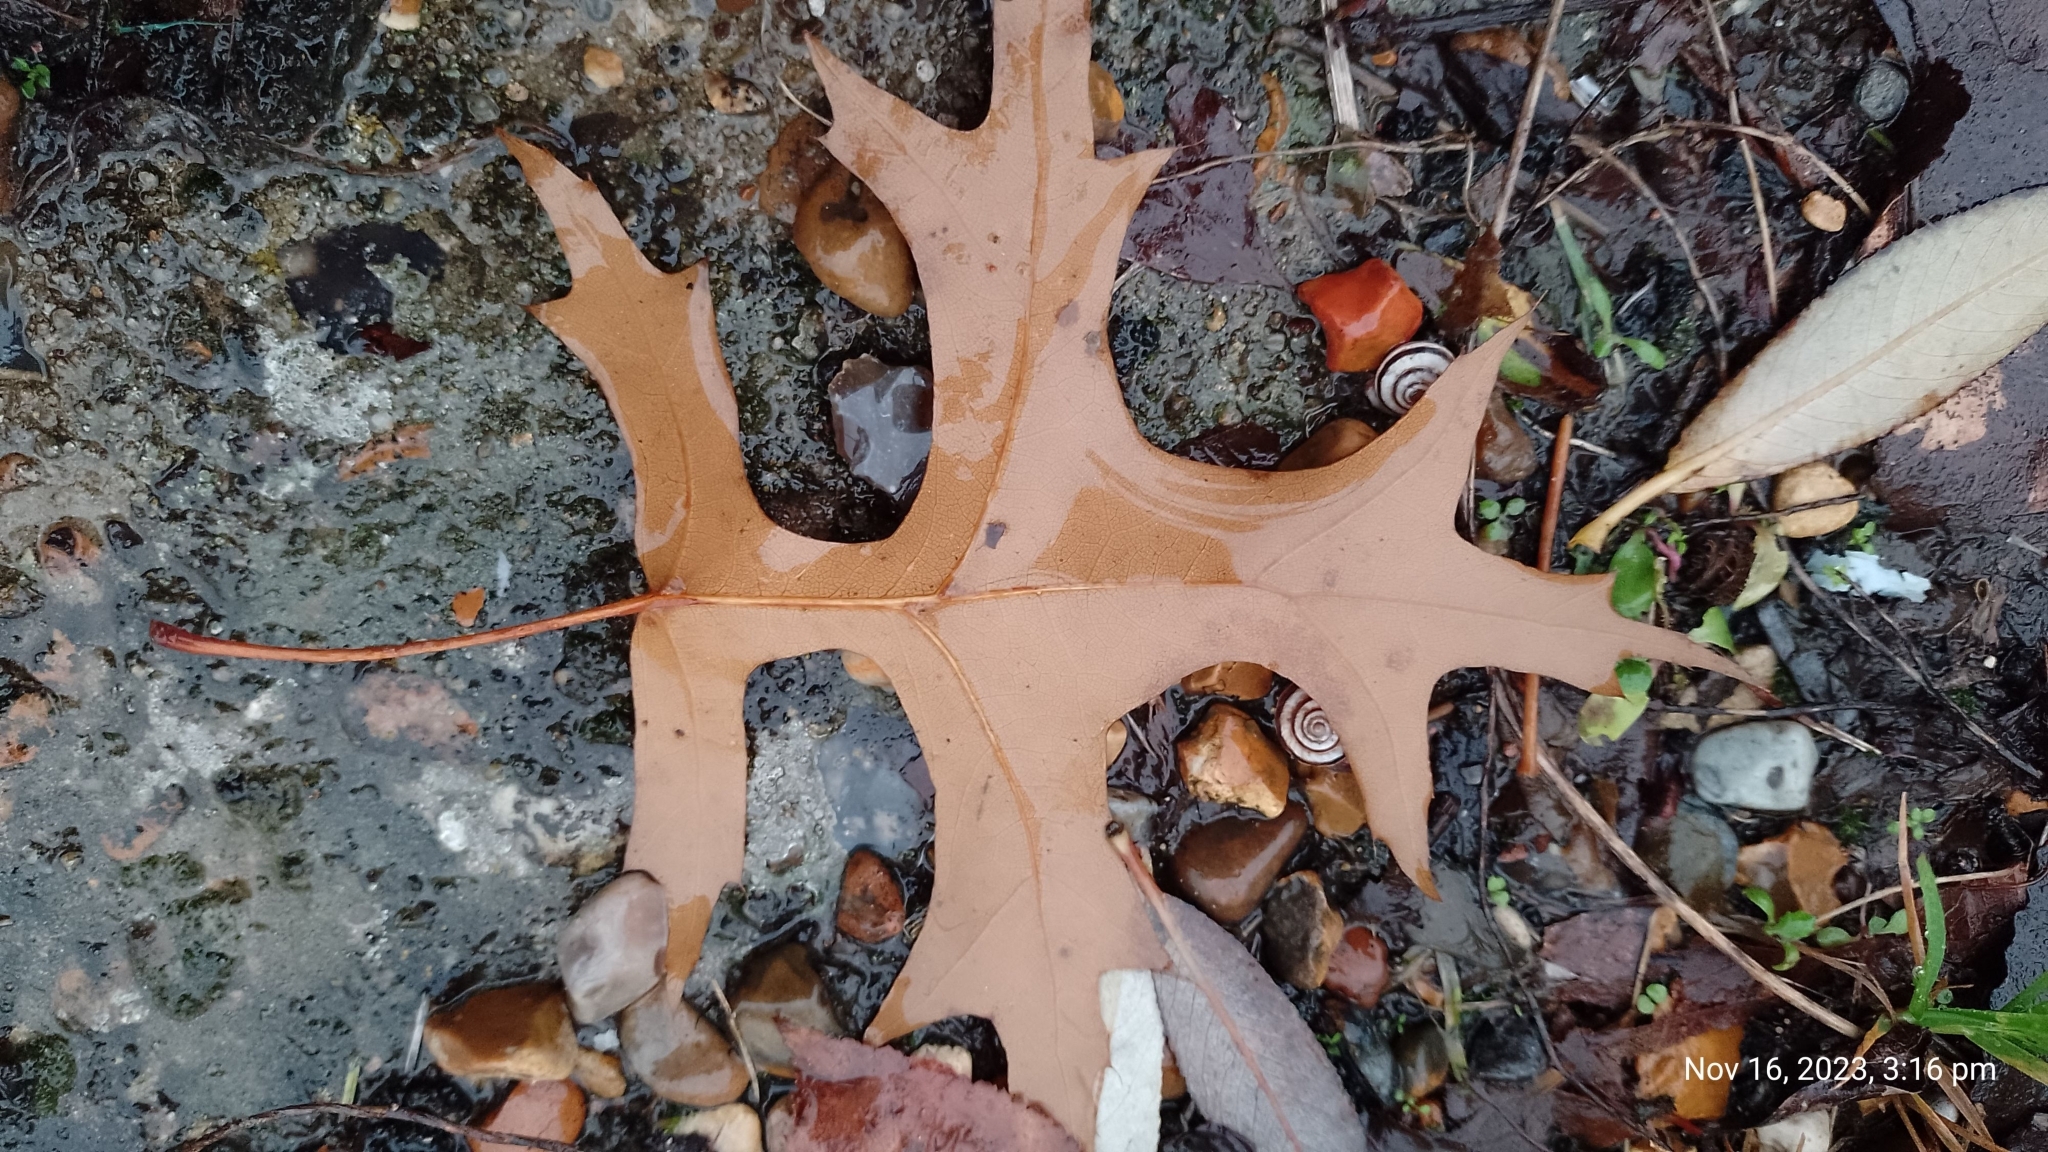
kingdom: Plantae
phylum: Tracheophyta
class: Magnoliopsida
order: Fagales
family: Fagaceae
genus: Quercus
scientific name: Quercus palustris
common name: Pin oak
